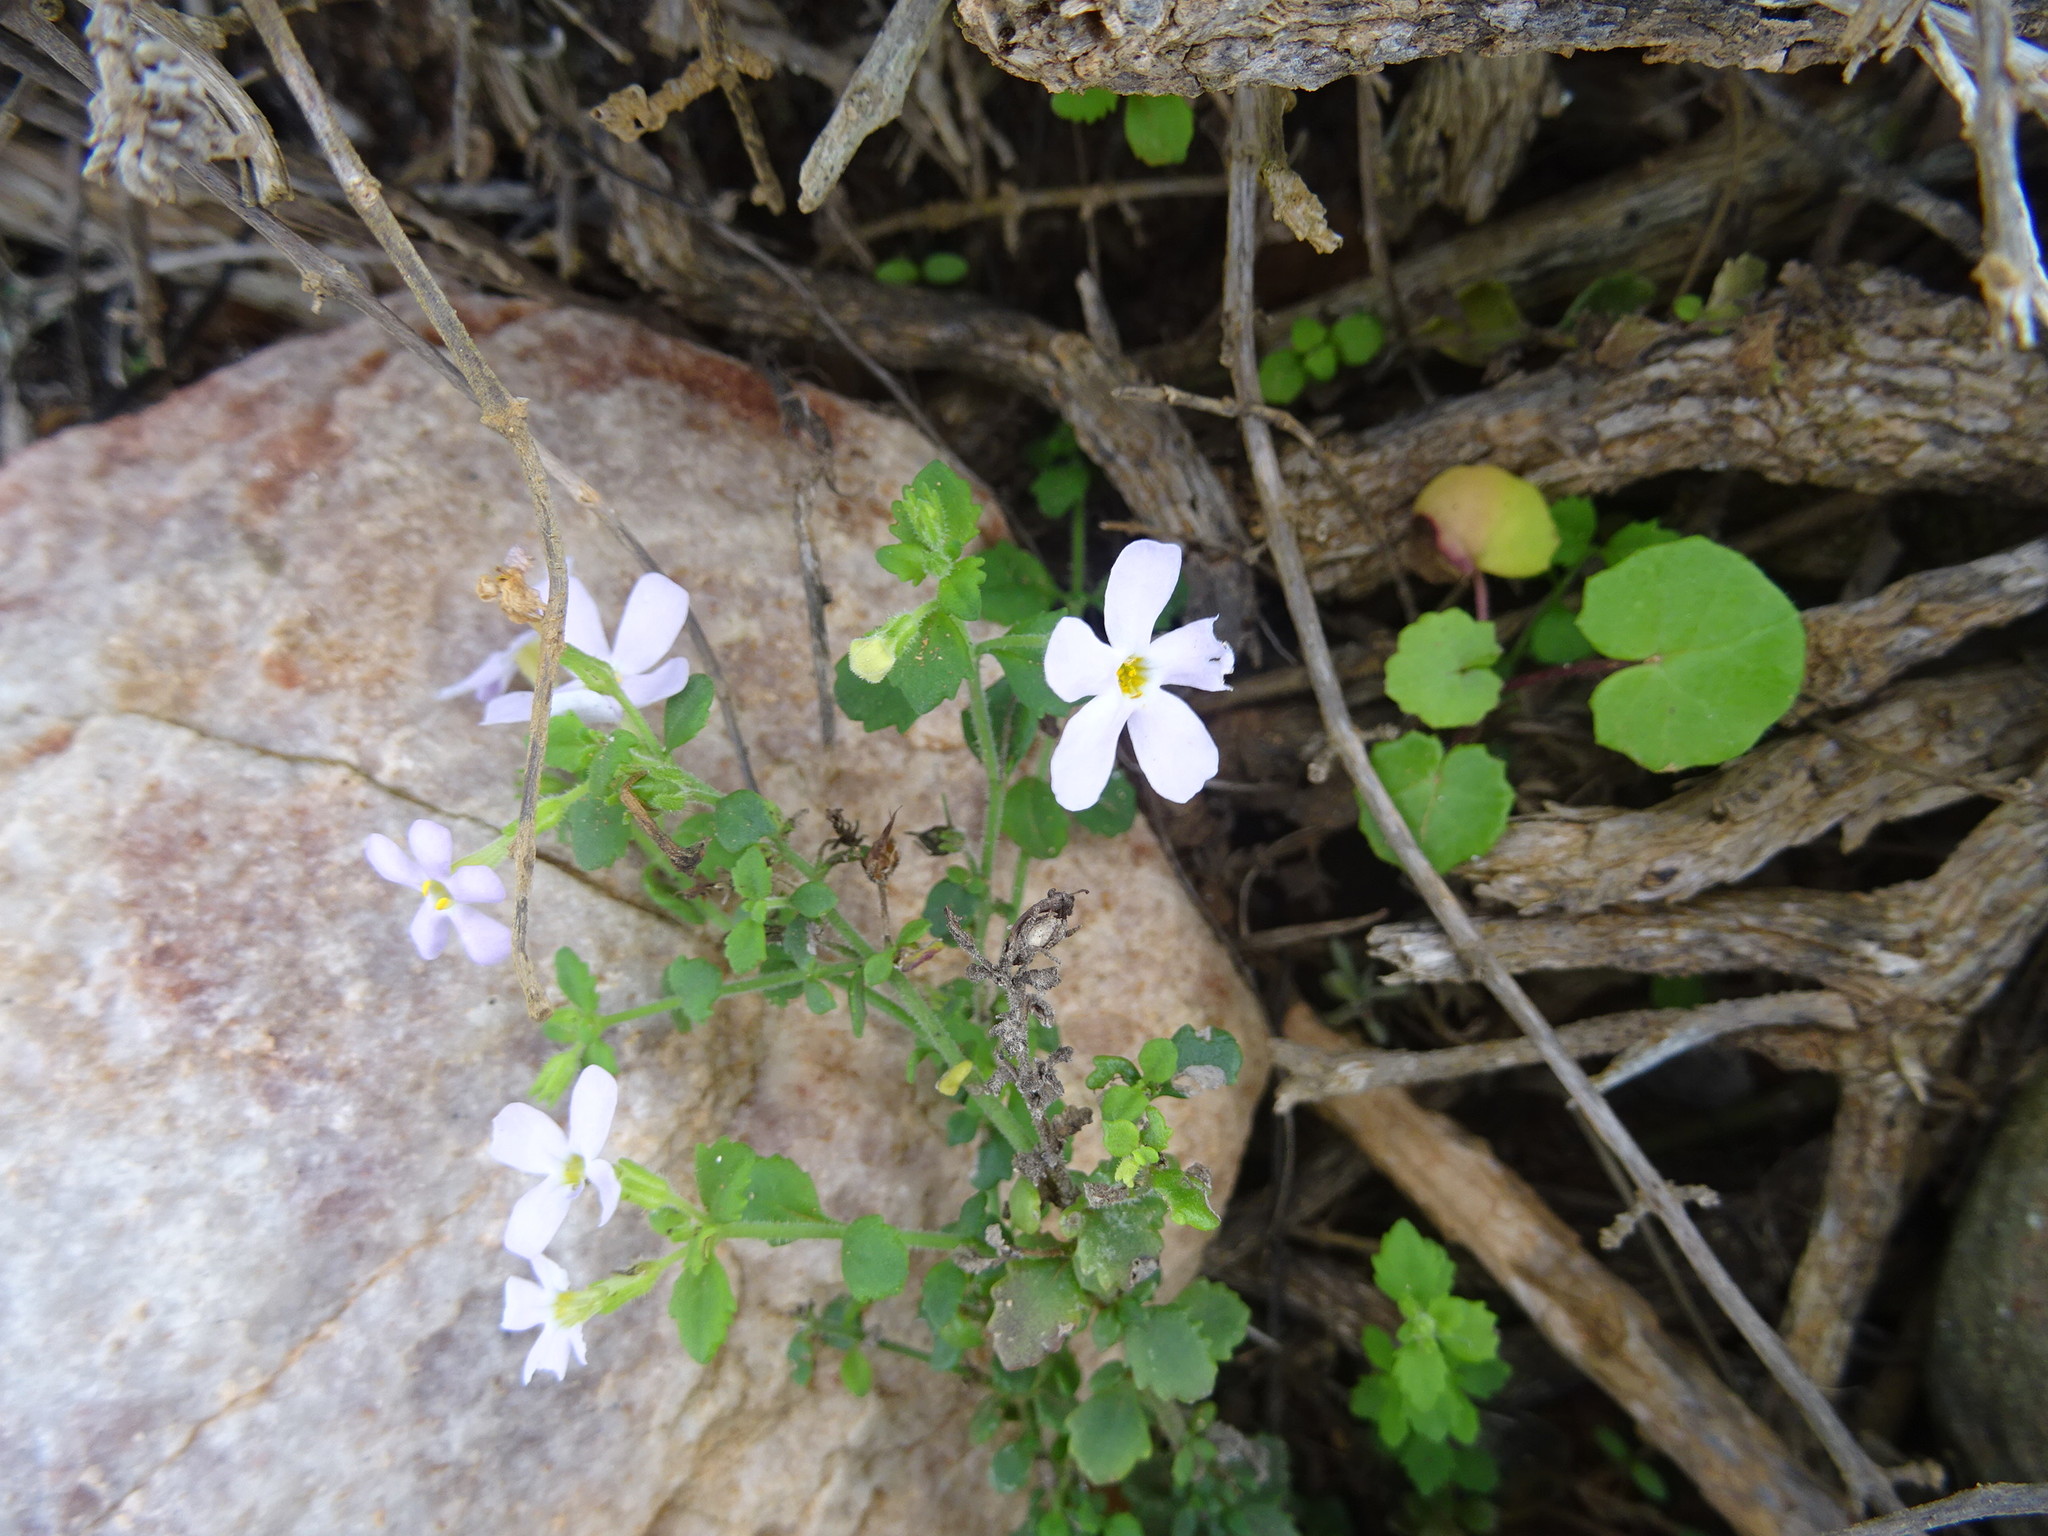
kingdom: Plantae
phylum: Tracheophyta
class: Magnoliopsida
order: Lamiales
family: Scrophulariaceae
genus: Chaenostoma
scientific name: Chaenostoma hispidum
